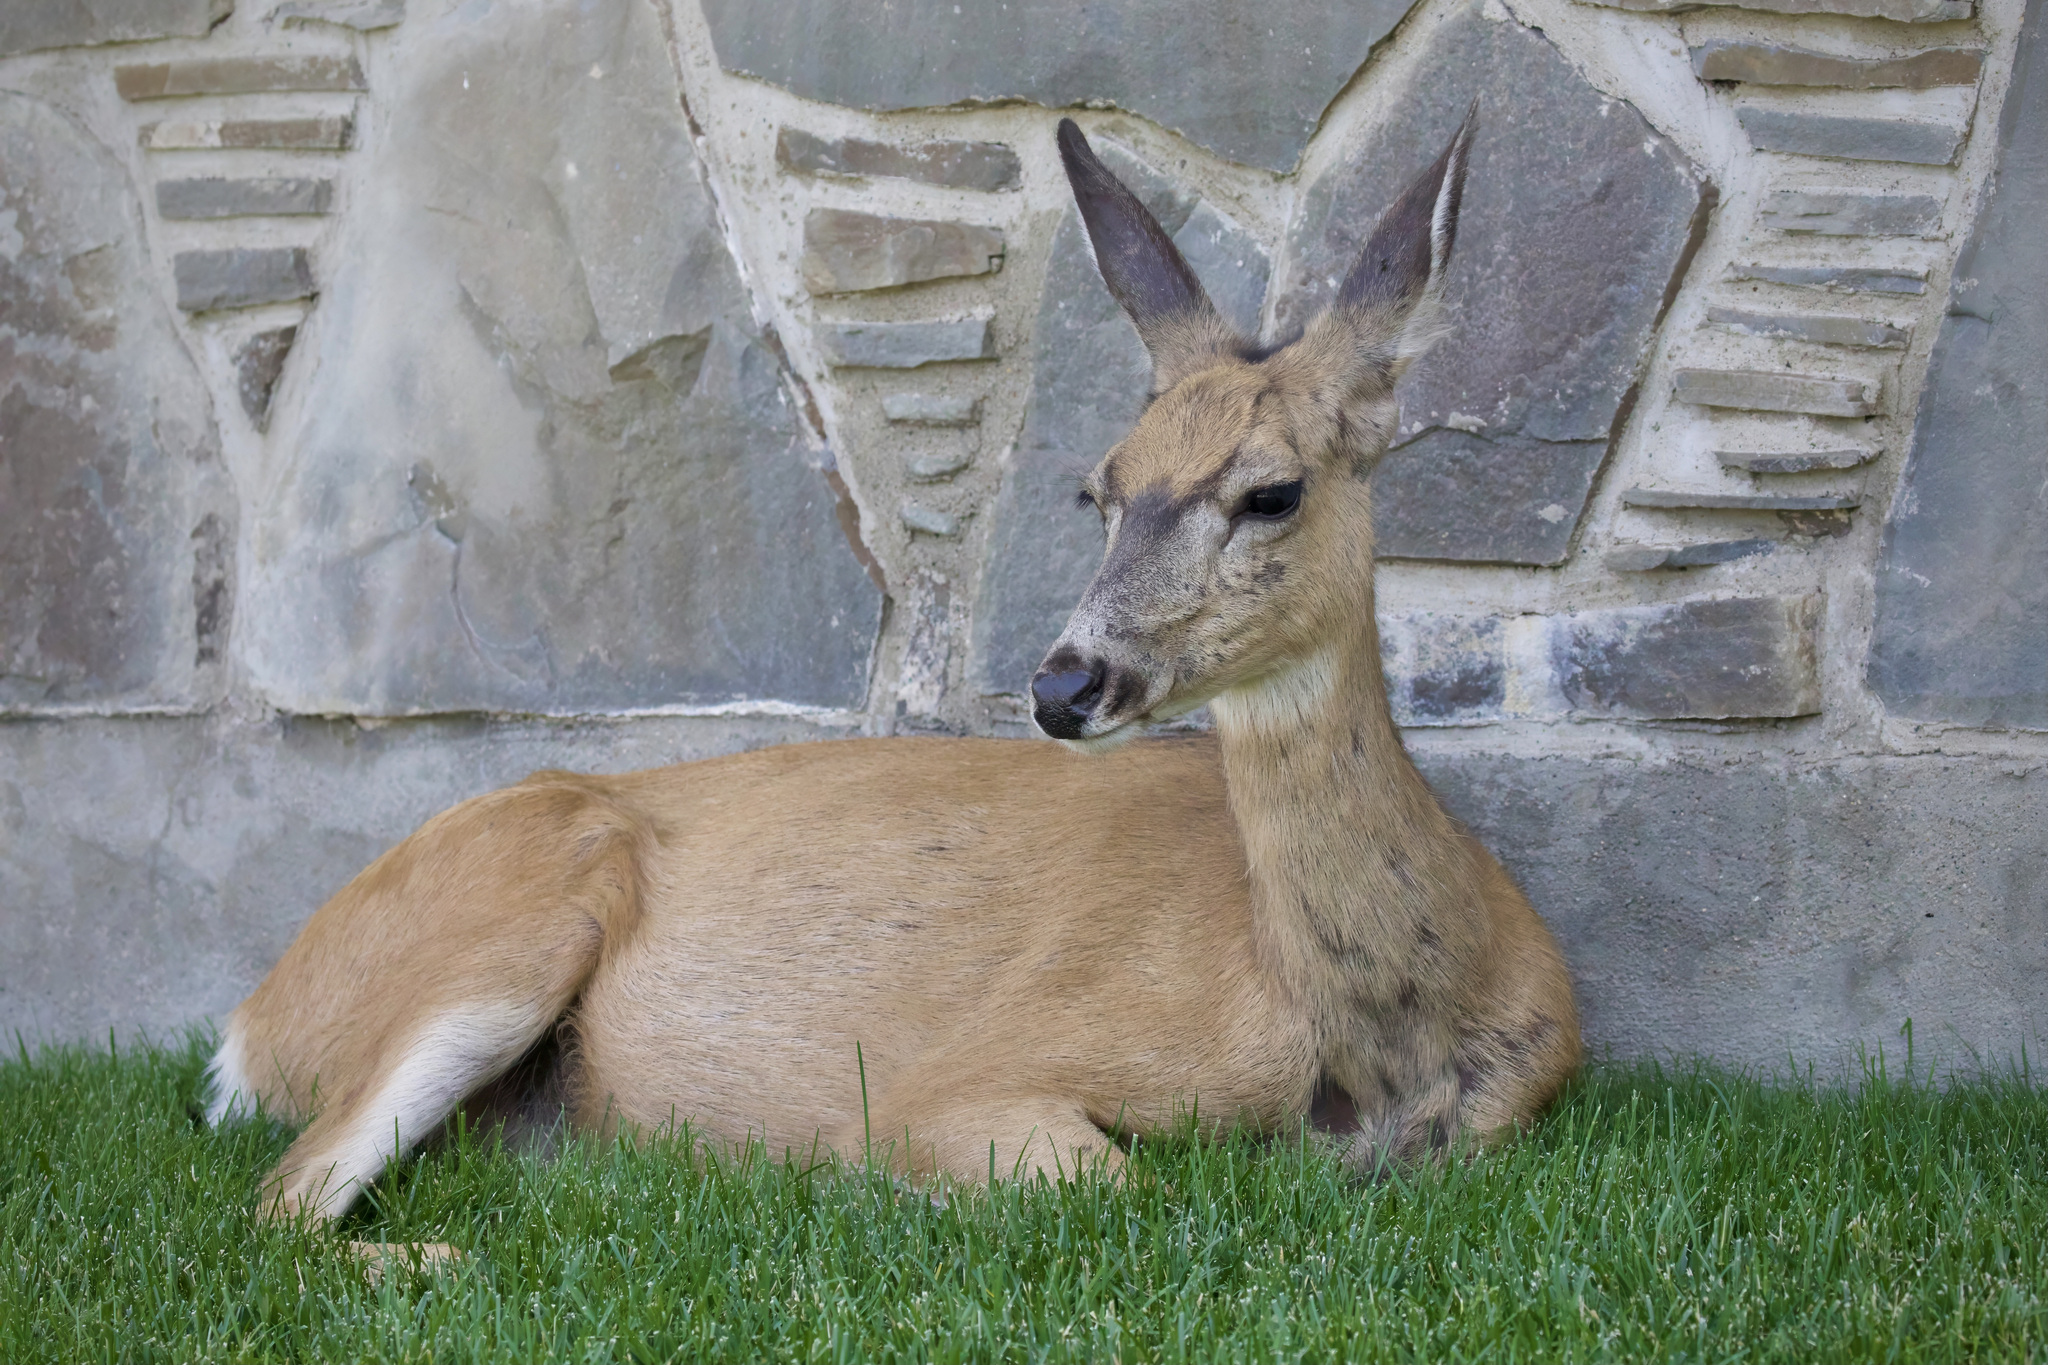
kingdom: Animalia
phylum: Chordata
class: Mammalia
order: Artiodactyla
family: Cervidae
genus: Odocoileus
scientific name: Odocoileus hemionus
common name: Mule deer
